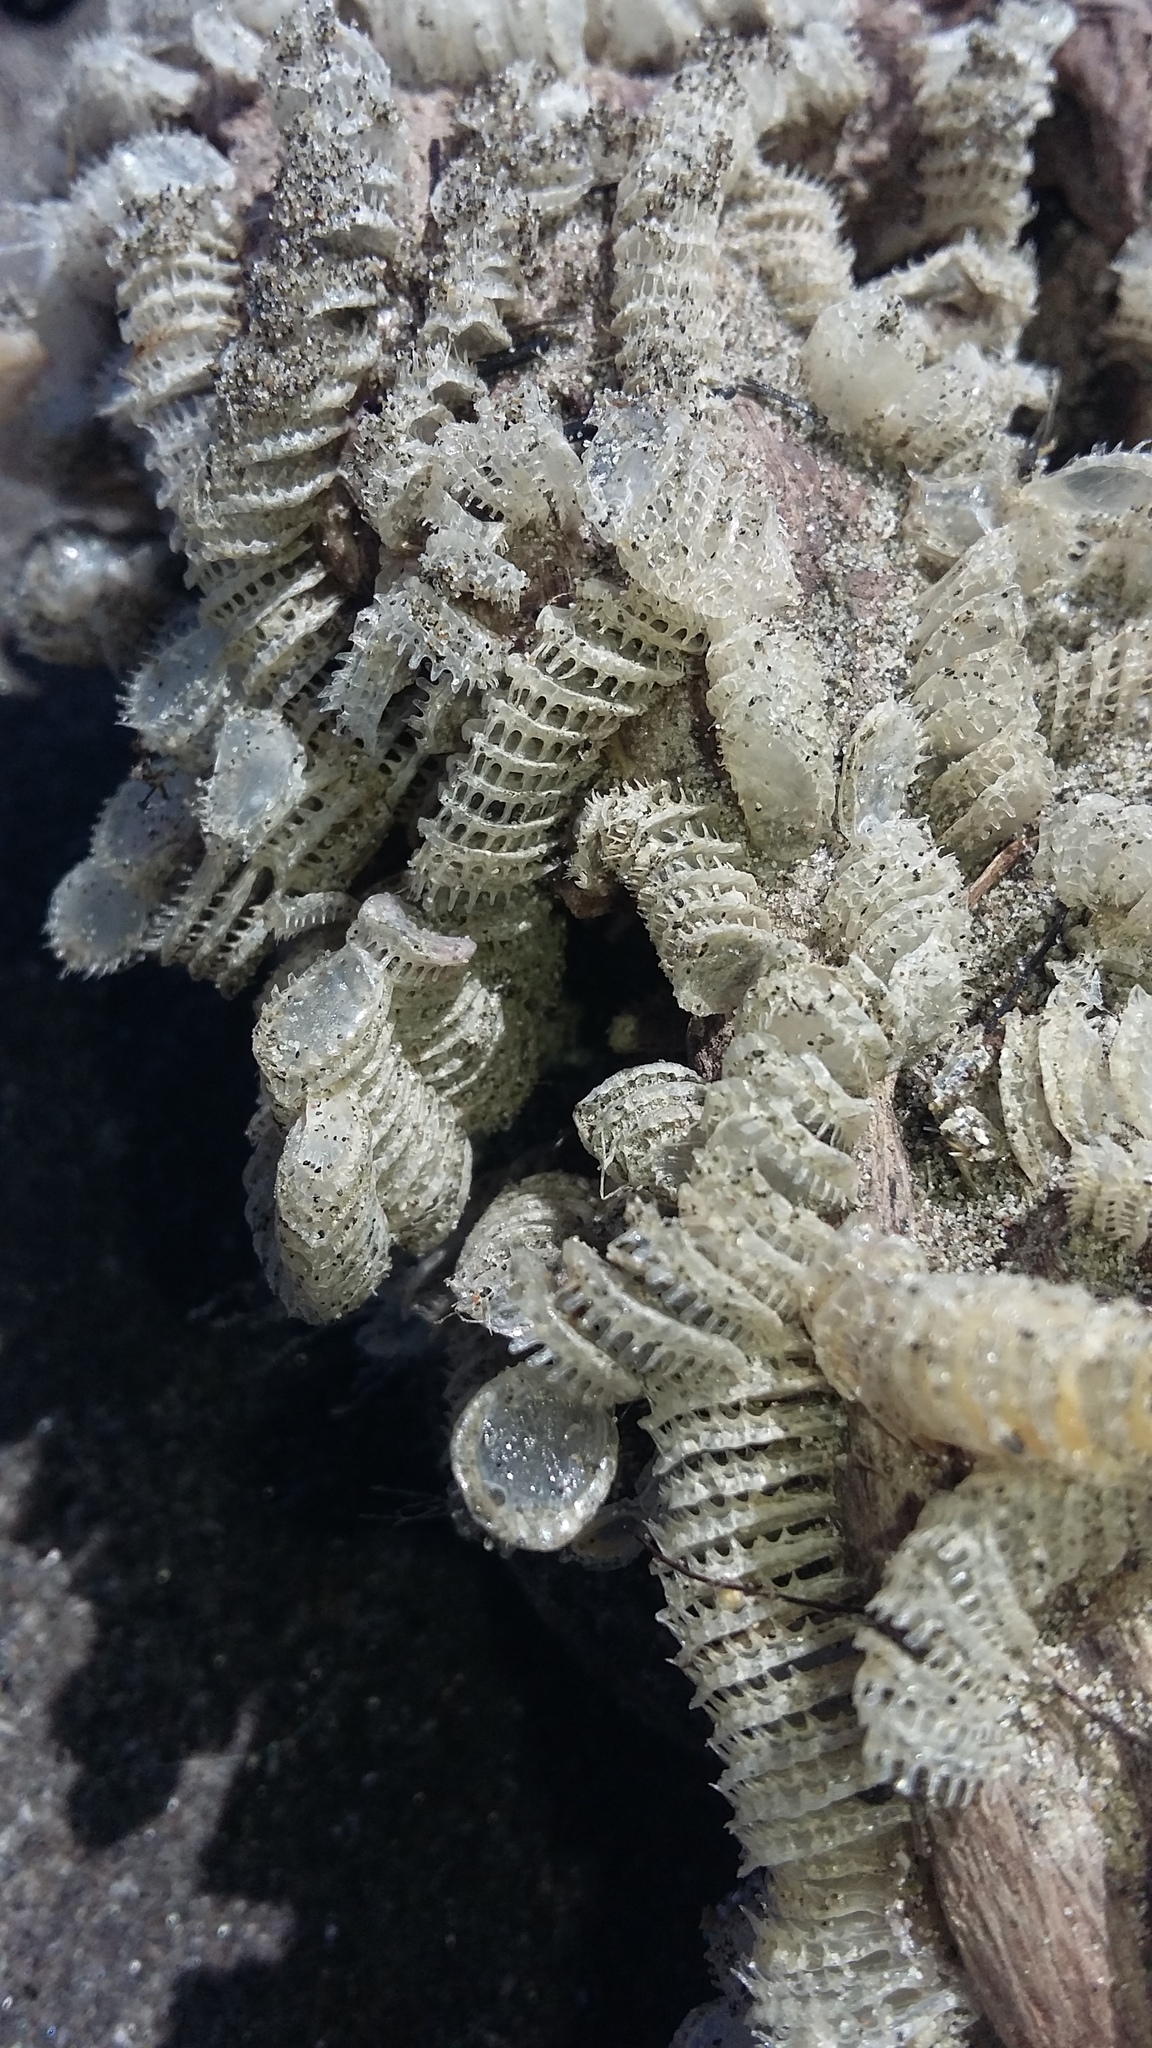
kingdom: Animalia
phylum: Mollusca
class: Gastropoda
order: Neogastropoda
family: Muricidae
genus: Poirieria
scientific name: Poirieria zelandica
